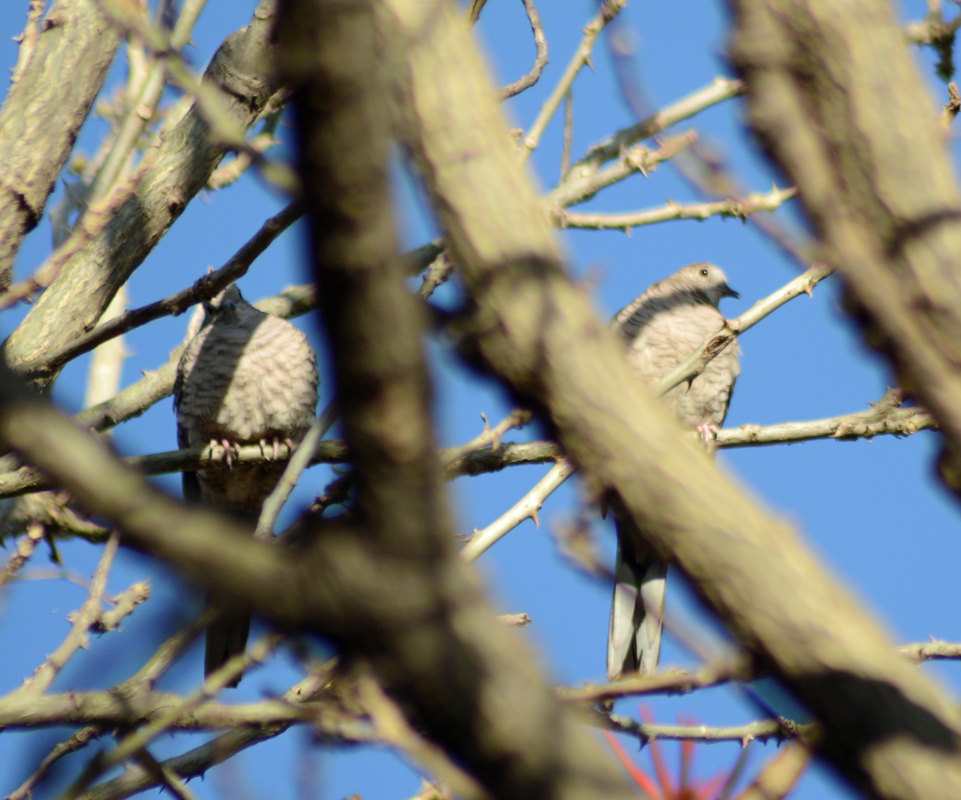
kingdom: Animalia
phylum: Chordata
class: Aves
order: Columbiformes
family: Columbidae
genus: Columbina
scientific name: Columbina inca
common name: Inca dove
